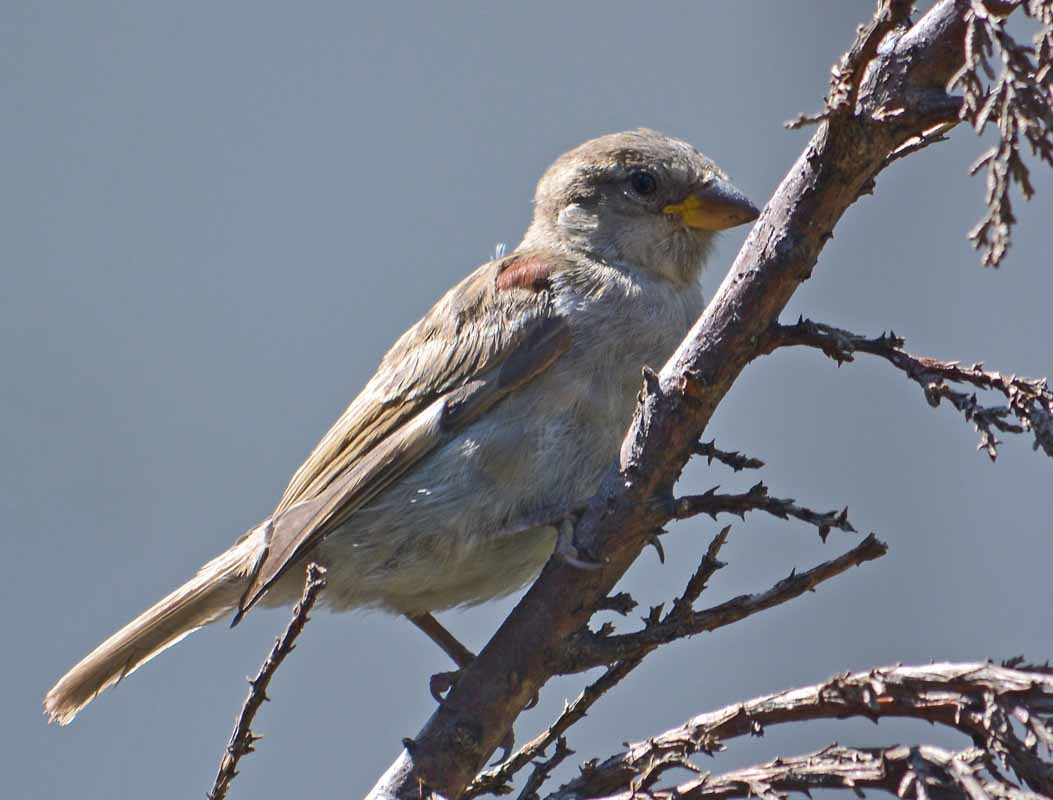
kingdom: Animalia
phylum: Chordata
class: Aves
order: Passeriformes
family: Passeridae
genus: Passer
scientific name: Passer domesticus
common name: House sparrow
